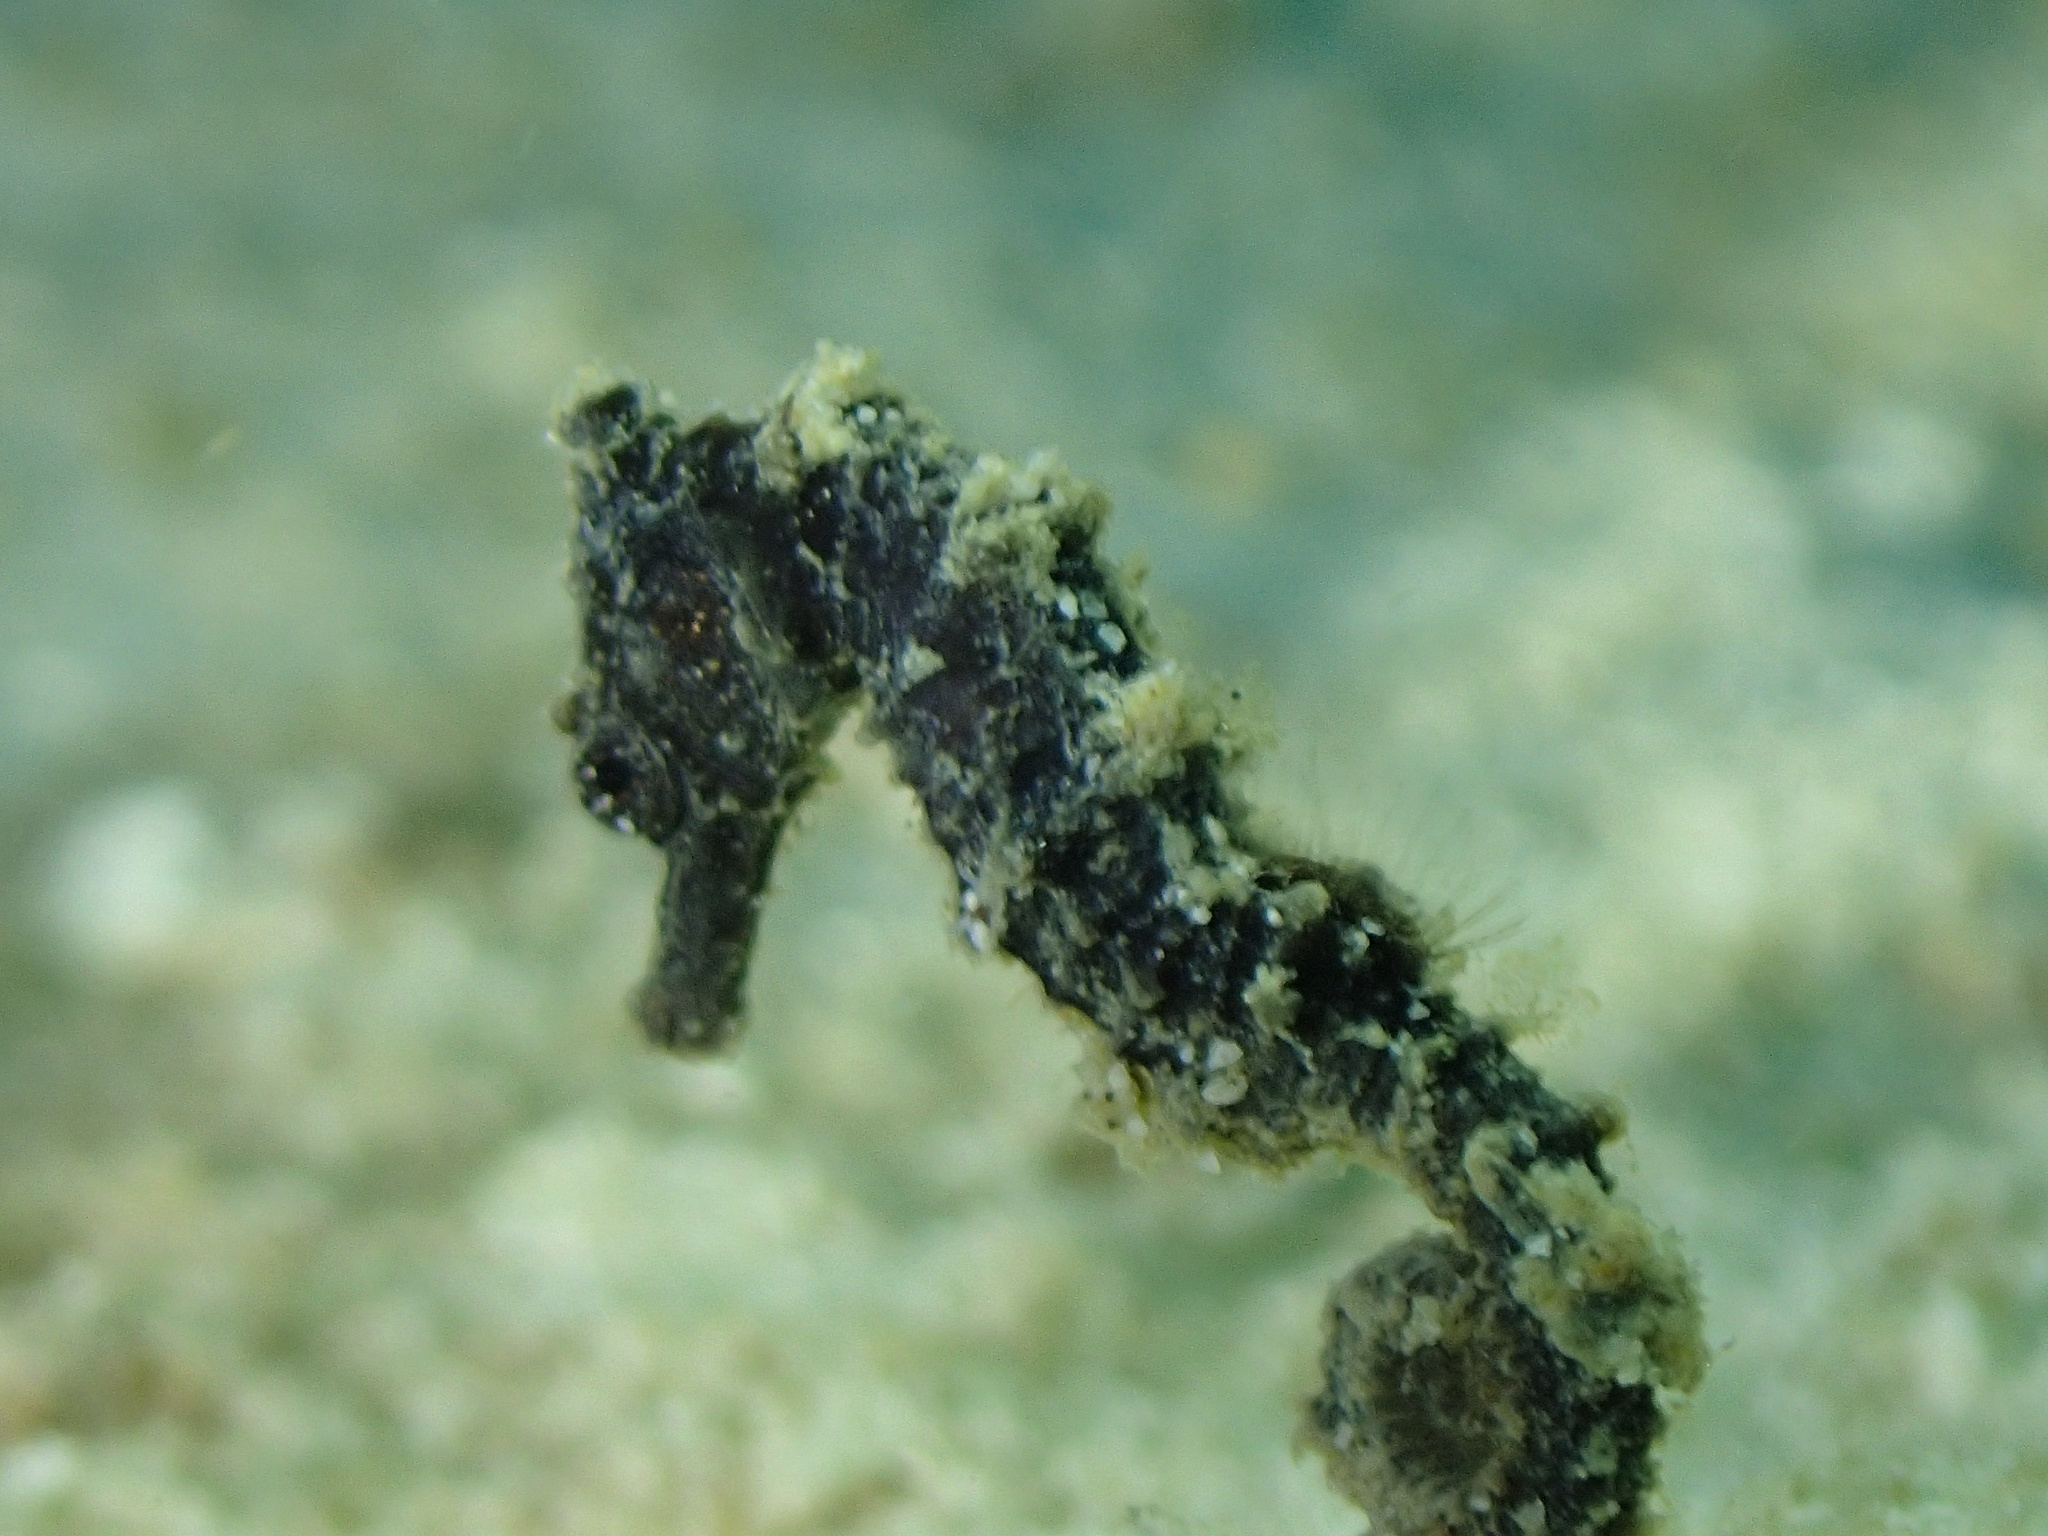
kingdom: Animalia
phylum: Chordata
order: Syngnathiformes
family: Syngnathidae
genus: Hippocampus
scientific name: Hippocampus kuda
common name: Spotted seahorse
